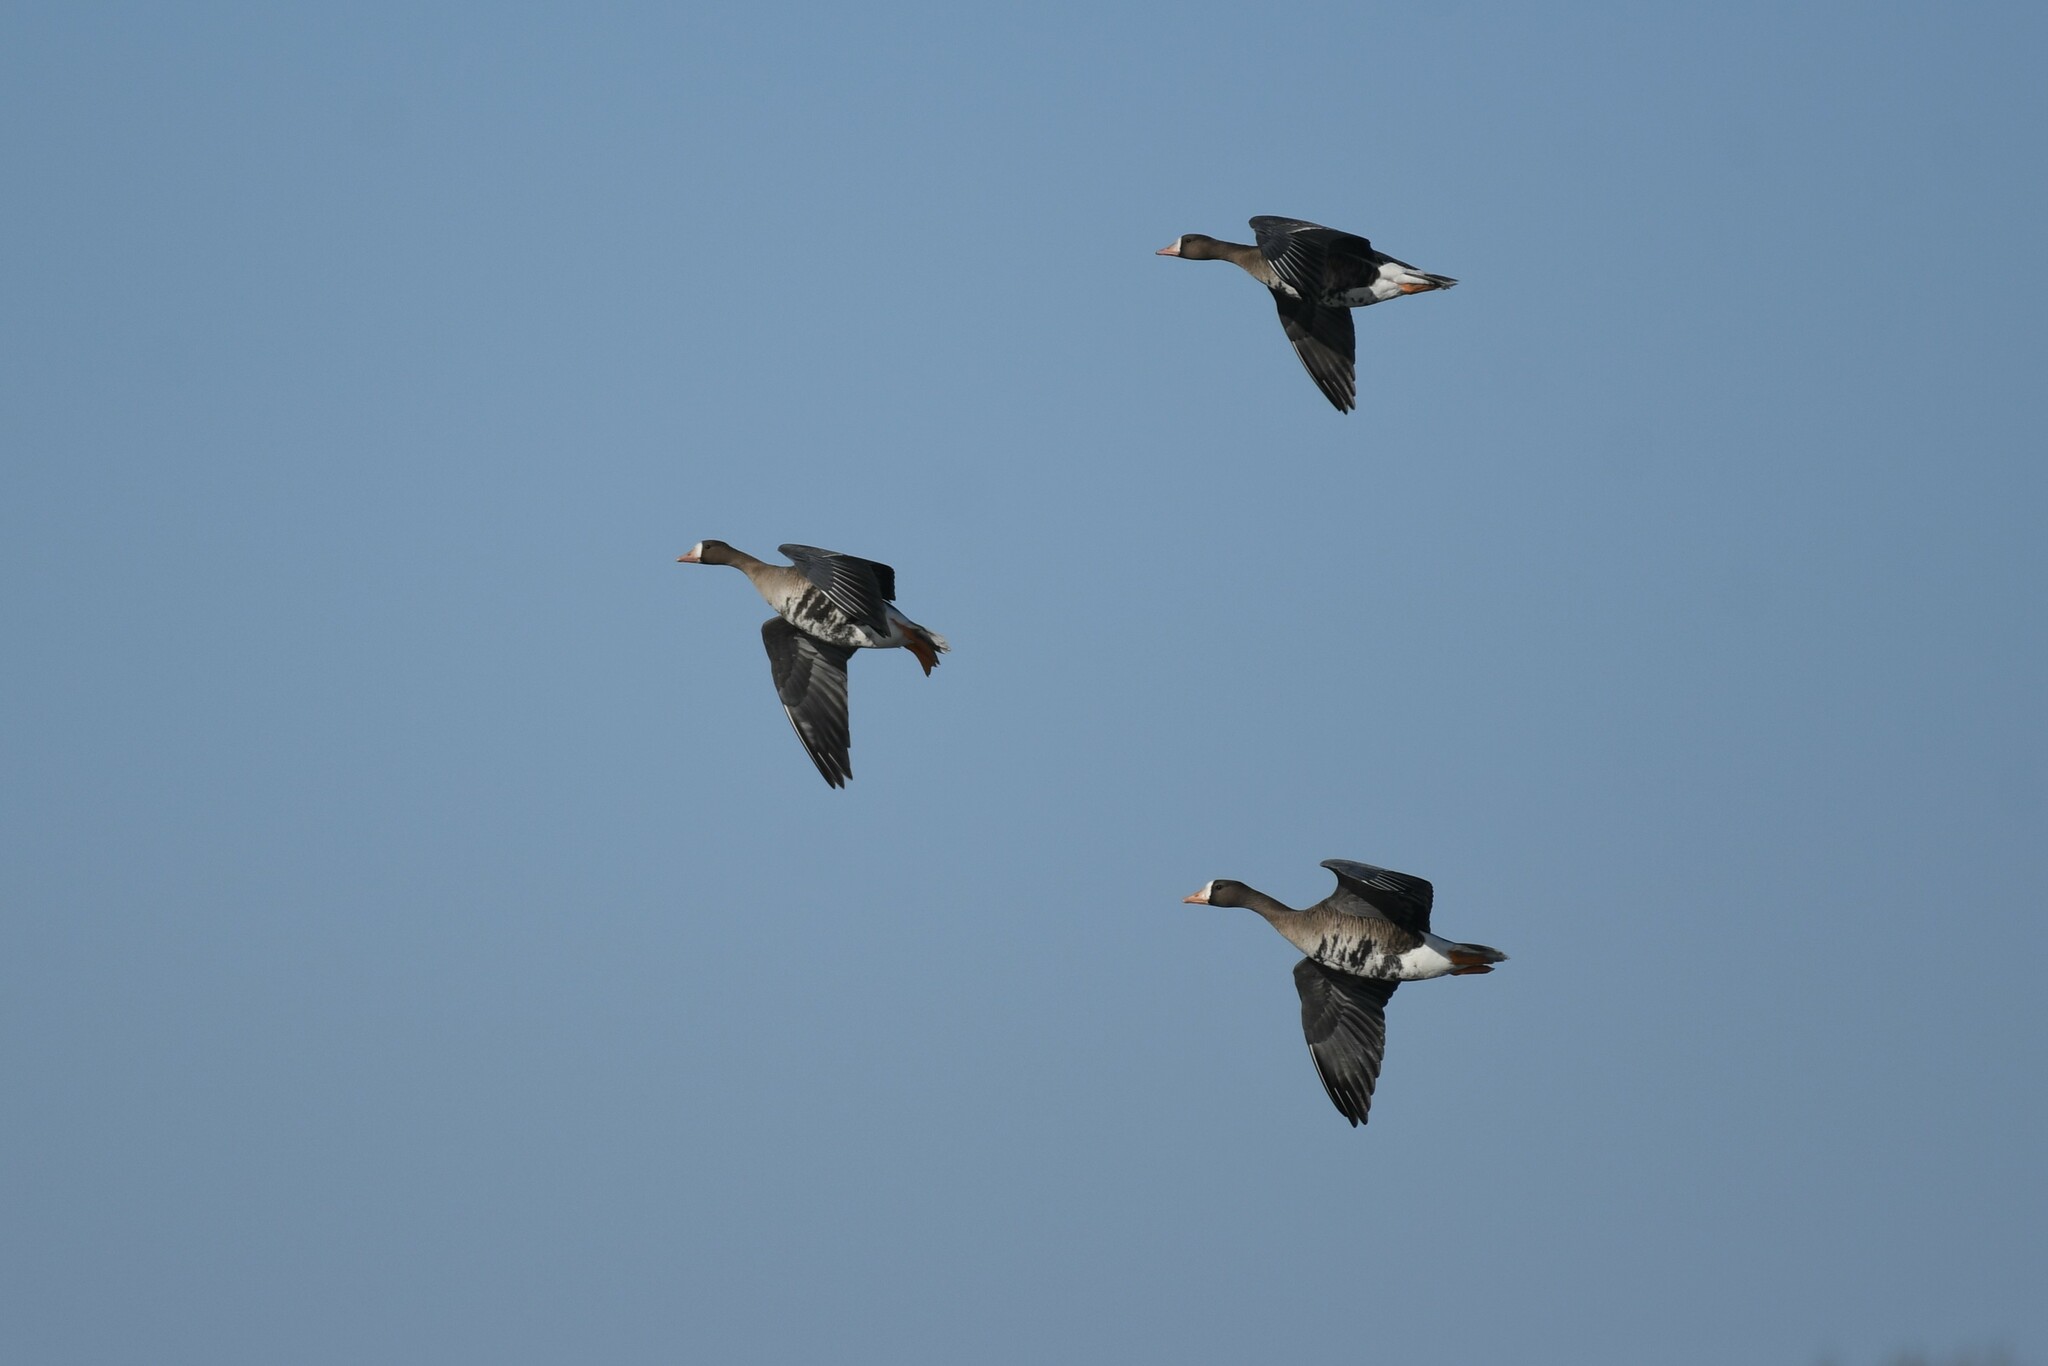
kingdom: Animalia
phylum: Chordata
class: Aves
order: Anseriformes
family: Anatidae
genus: Anser
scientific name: Anser albifrons
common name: Greater white-fronted goose
